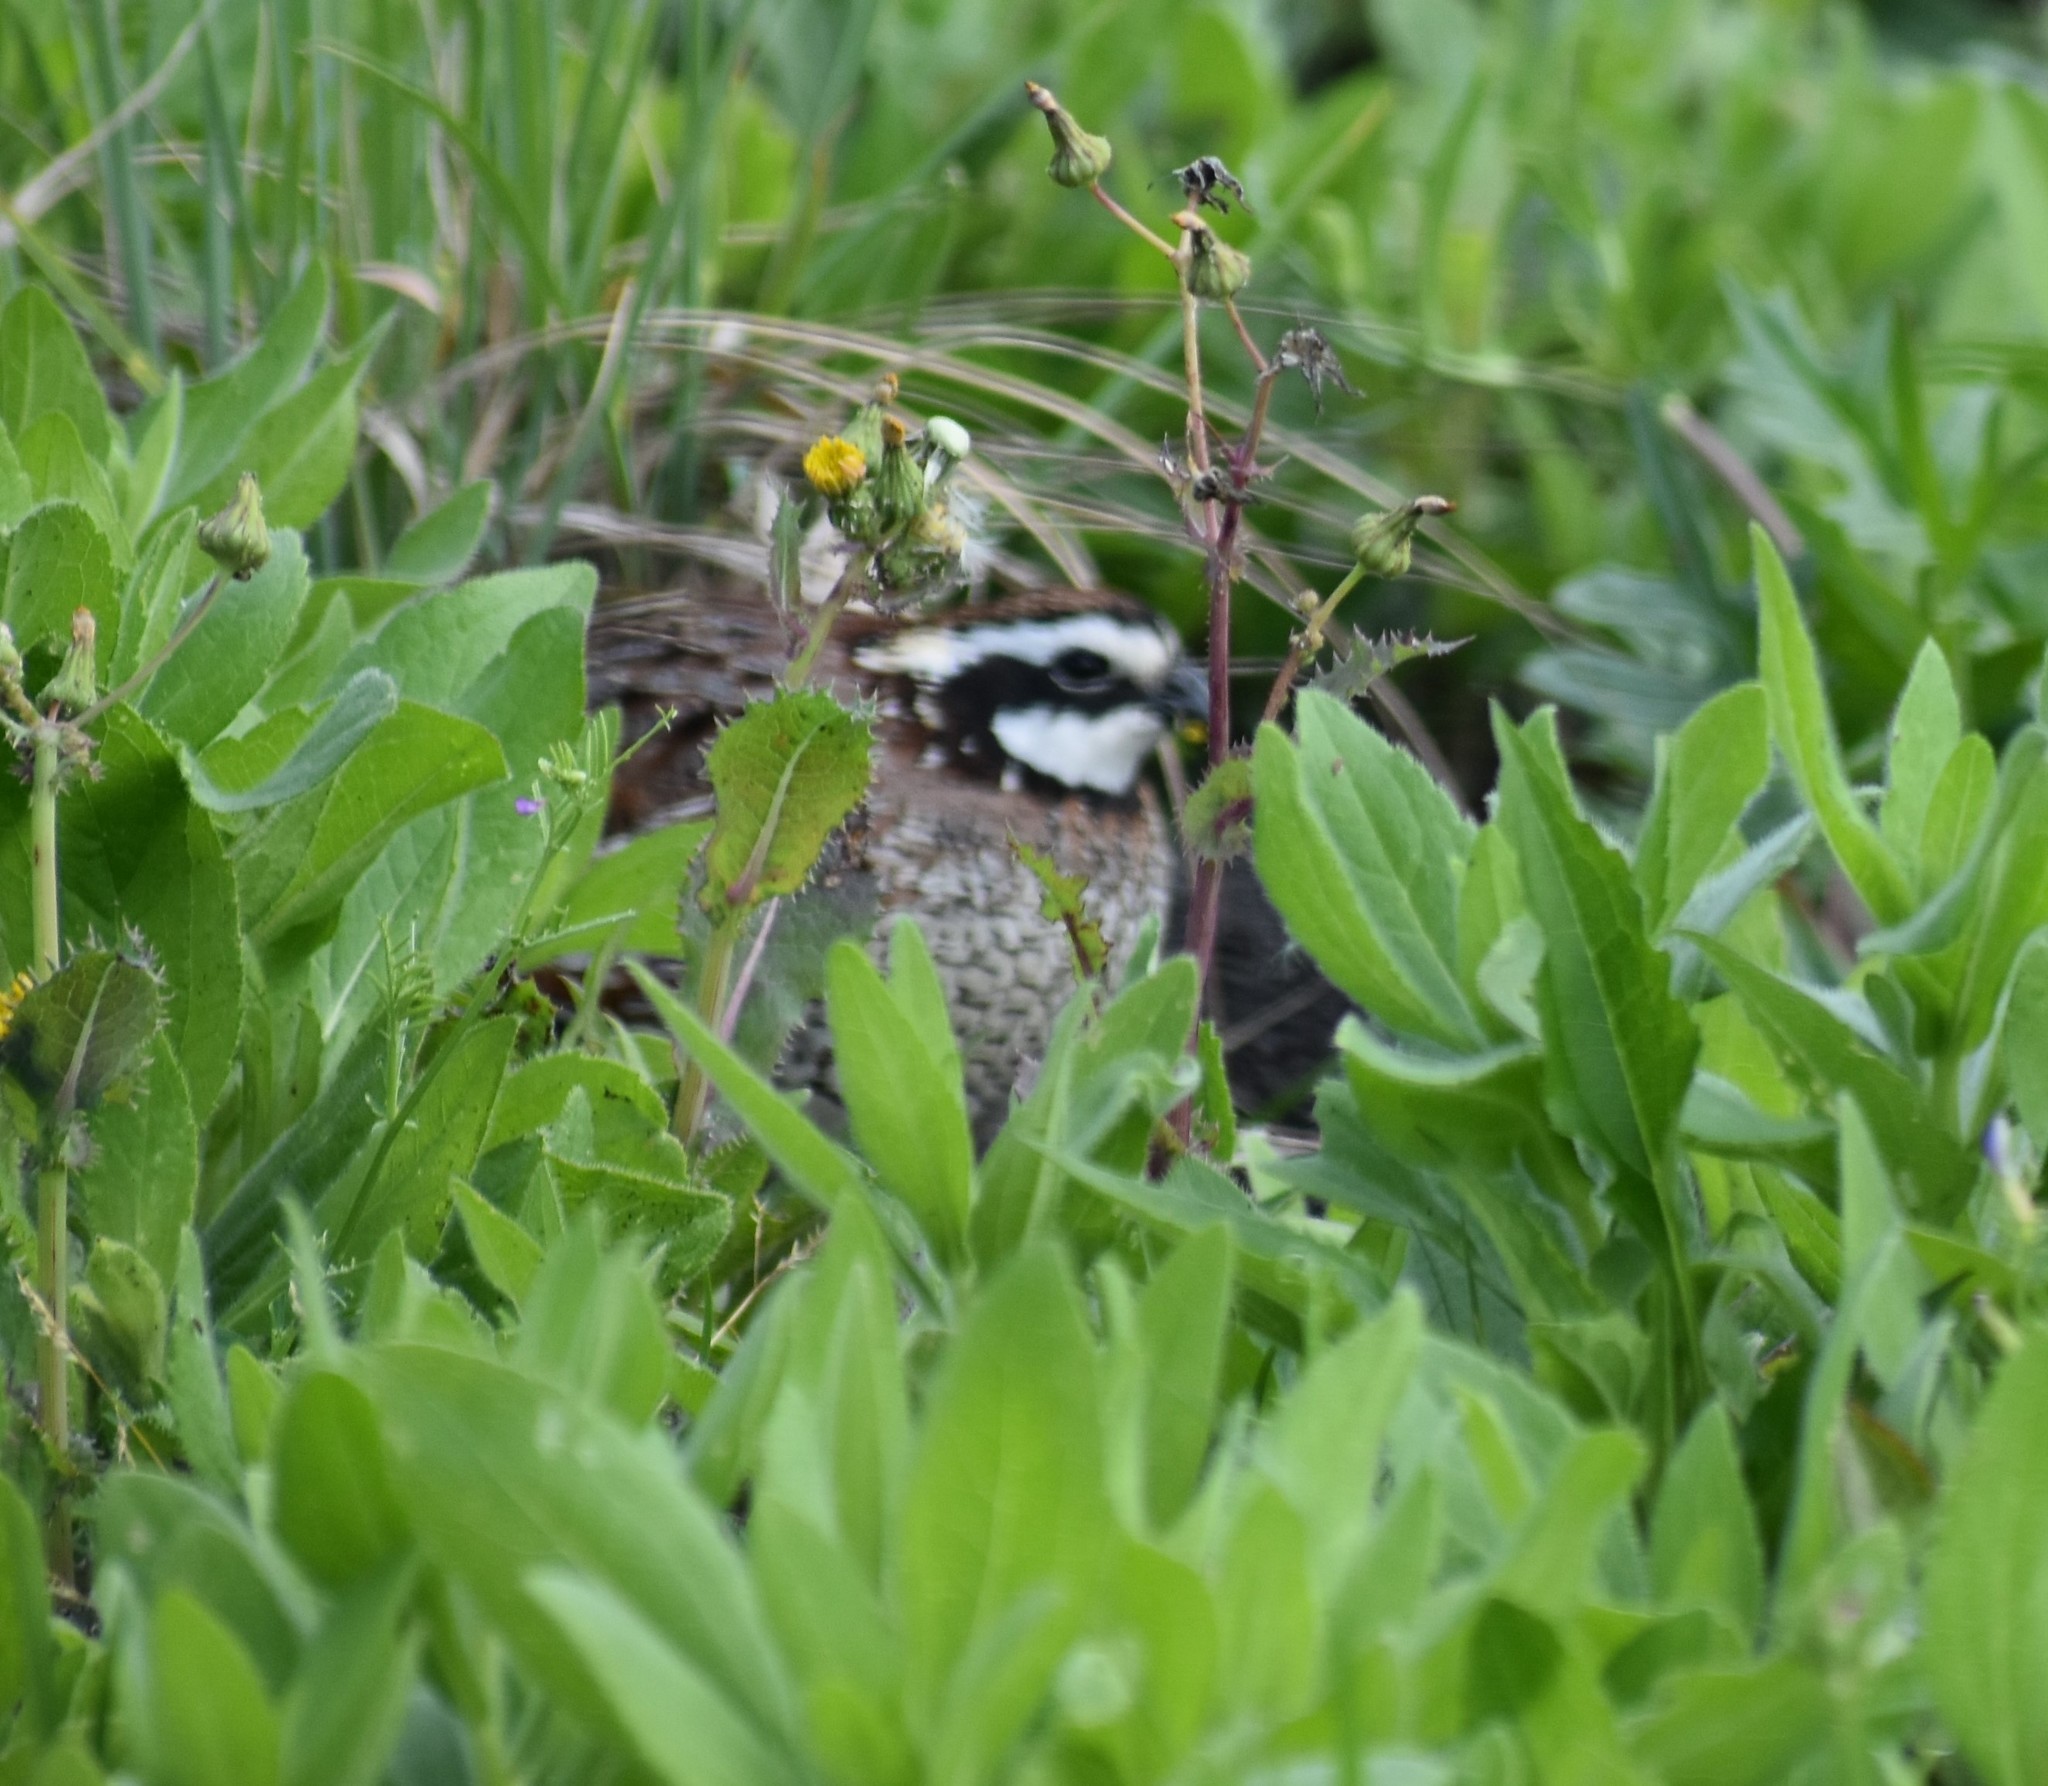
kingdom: Animalia
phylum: Chordata
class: Aves
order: Galliformes
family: Odontophoridae
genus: Colinus
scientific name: Colinus virginianus
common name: Northern bobwhite
